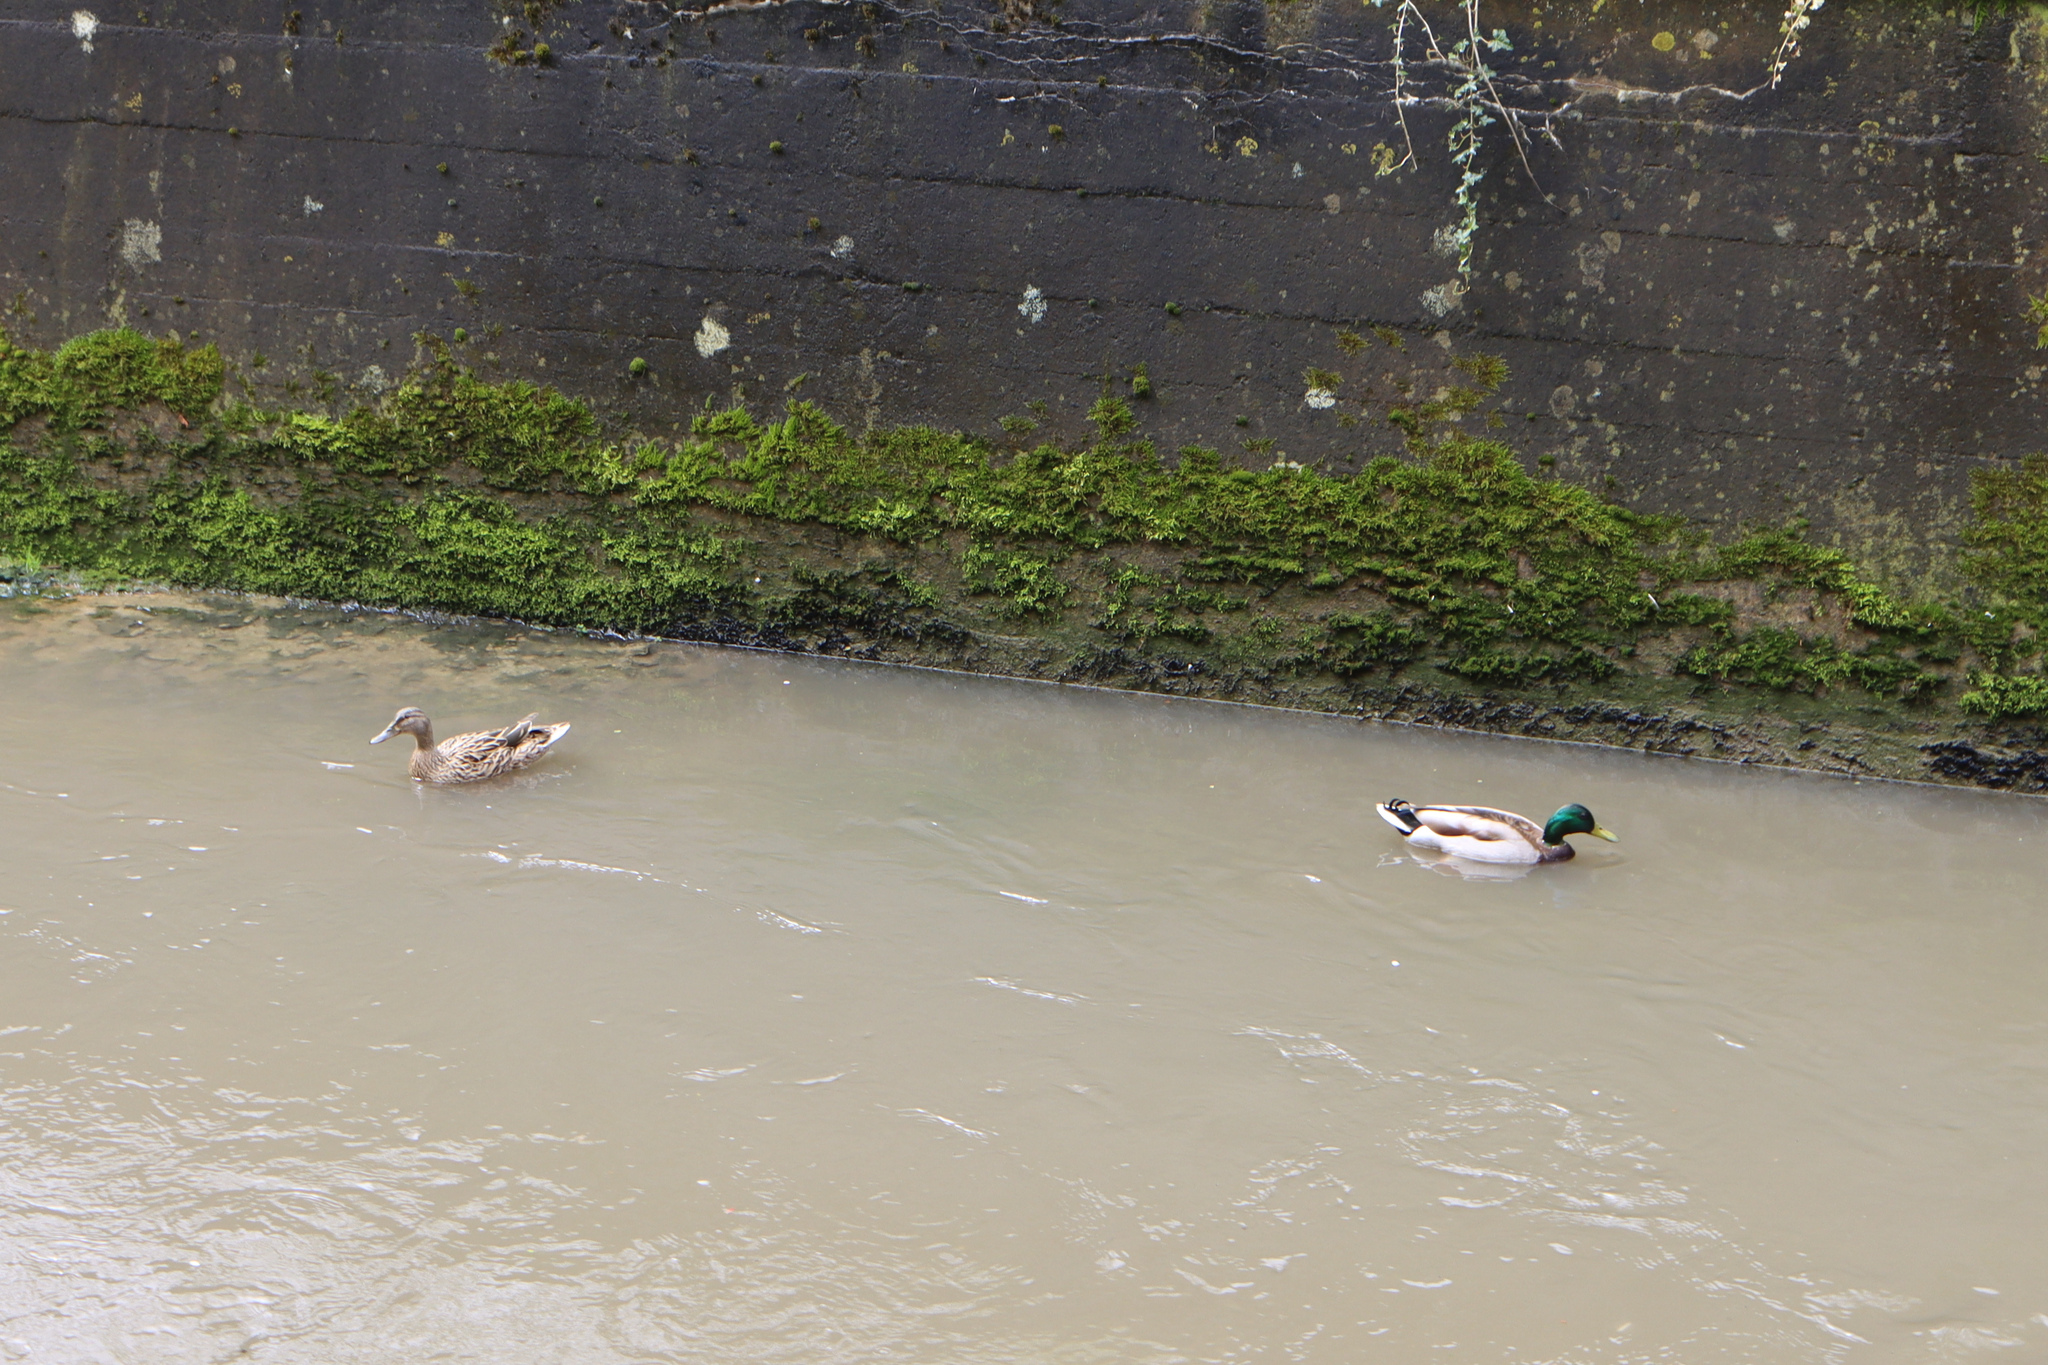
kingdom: Animalia
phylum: Chordata
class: Aves
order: Anseriformes
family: Anatidae
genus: Anas
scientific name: Anas platyrhynchos
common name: Mallard
